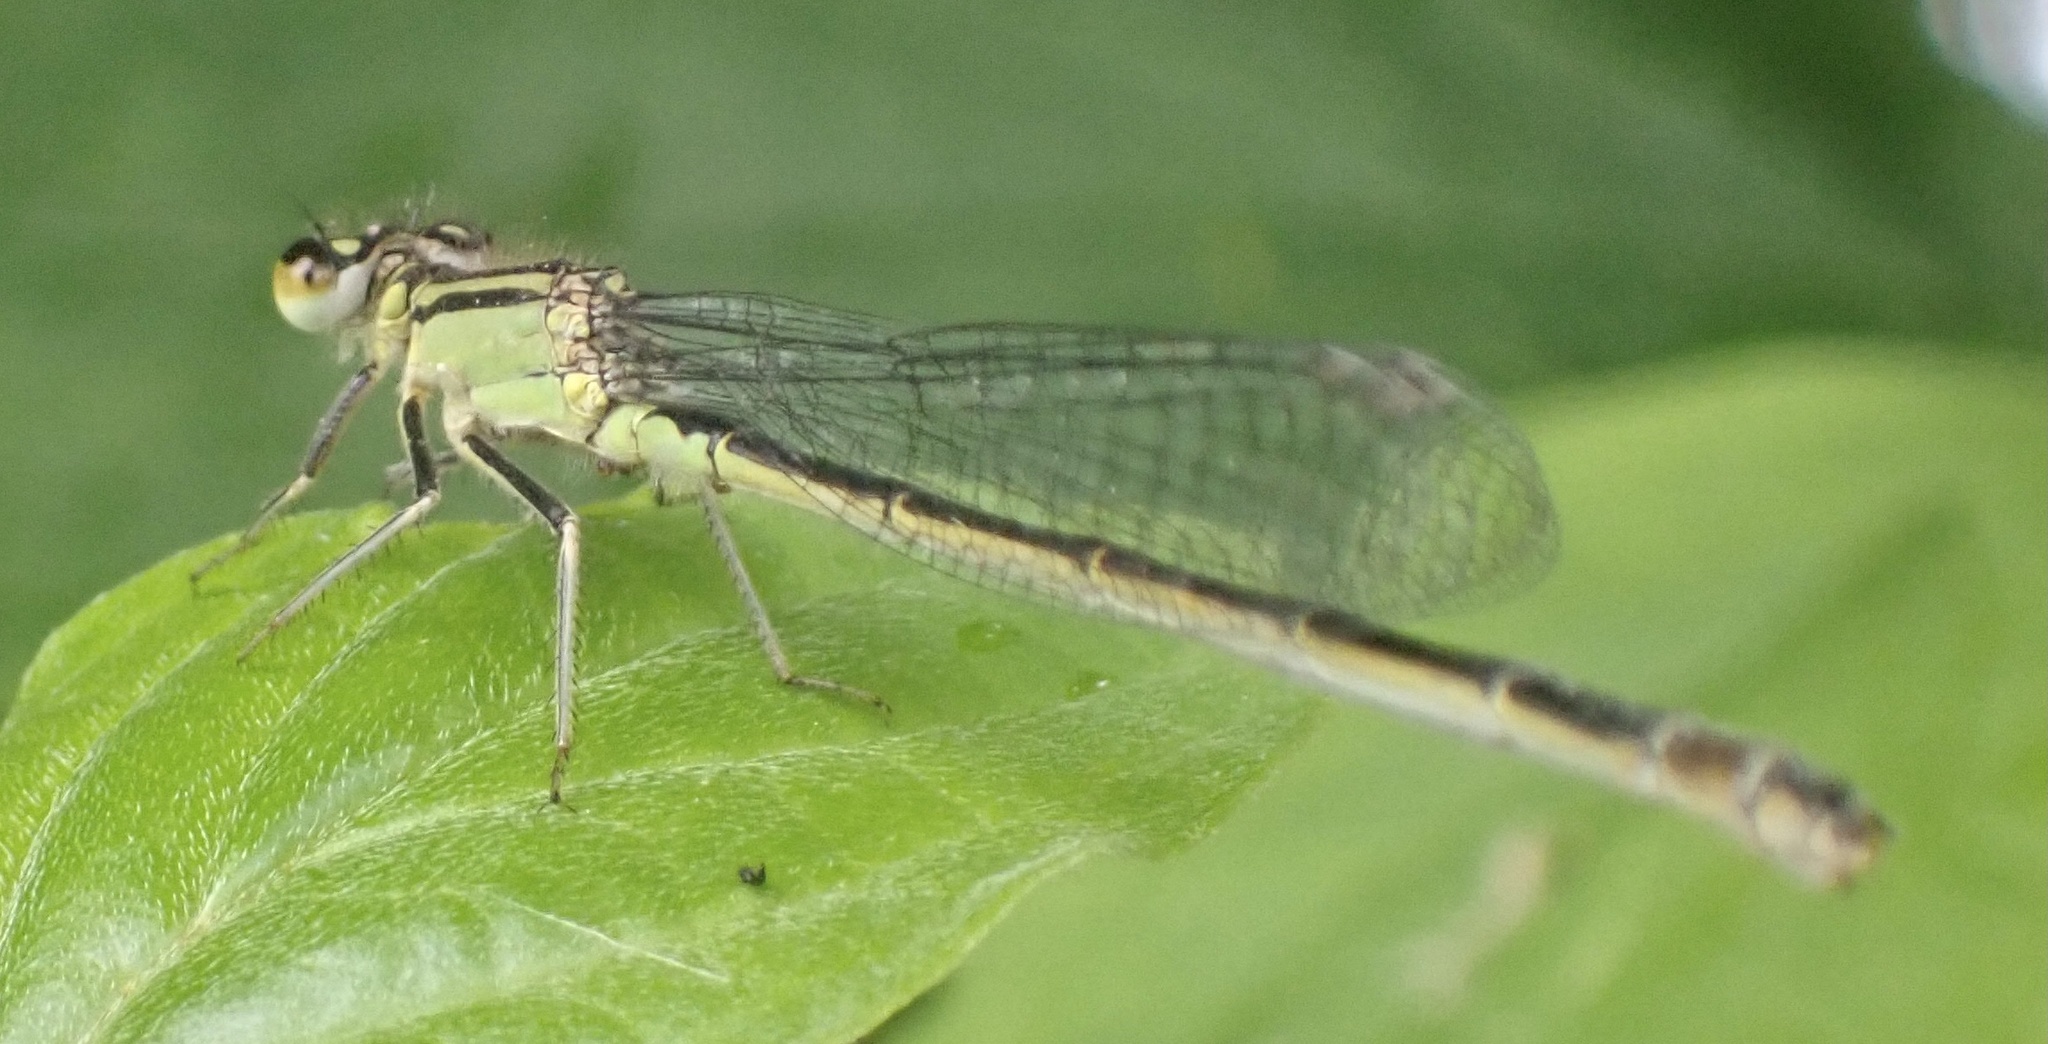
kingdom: Animalia
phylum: Arthropoda
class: Insecta
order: Odonata
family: Coenagrionidae
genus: Ischnura
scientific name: Ischnura elegans
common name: Blue-tailed damselfly
